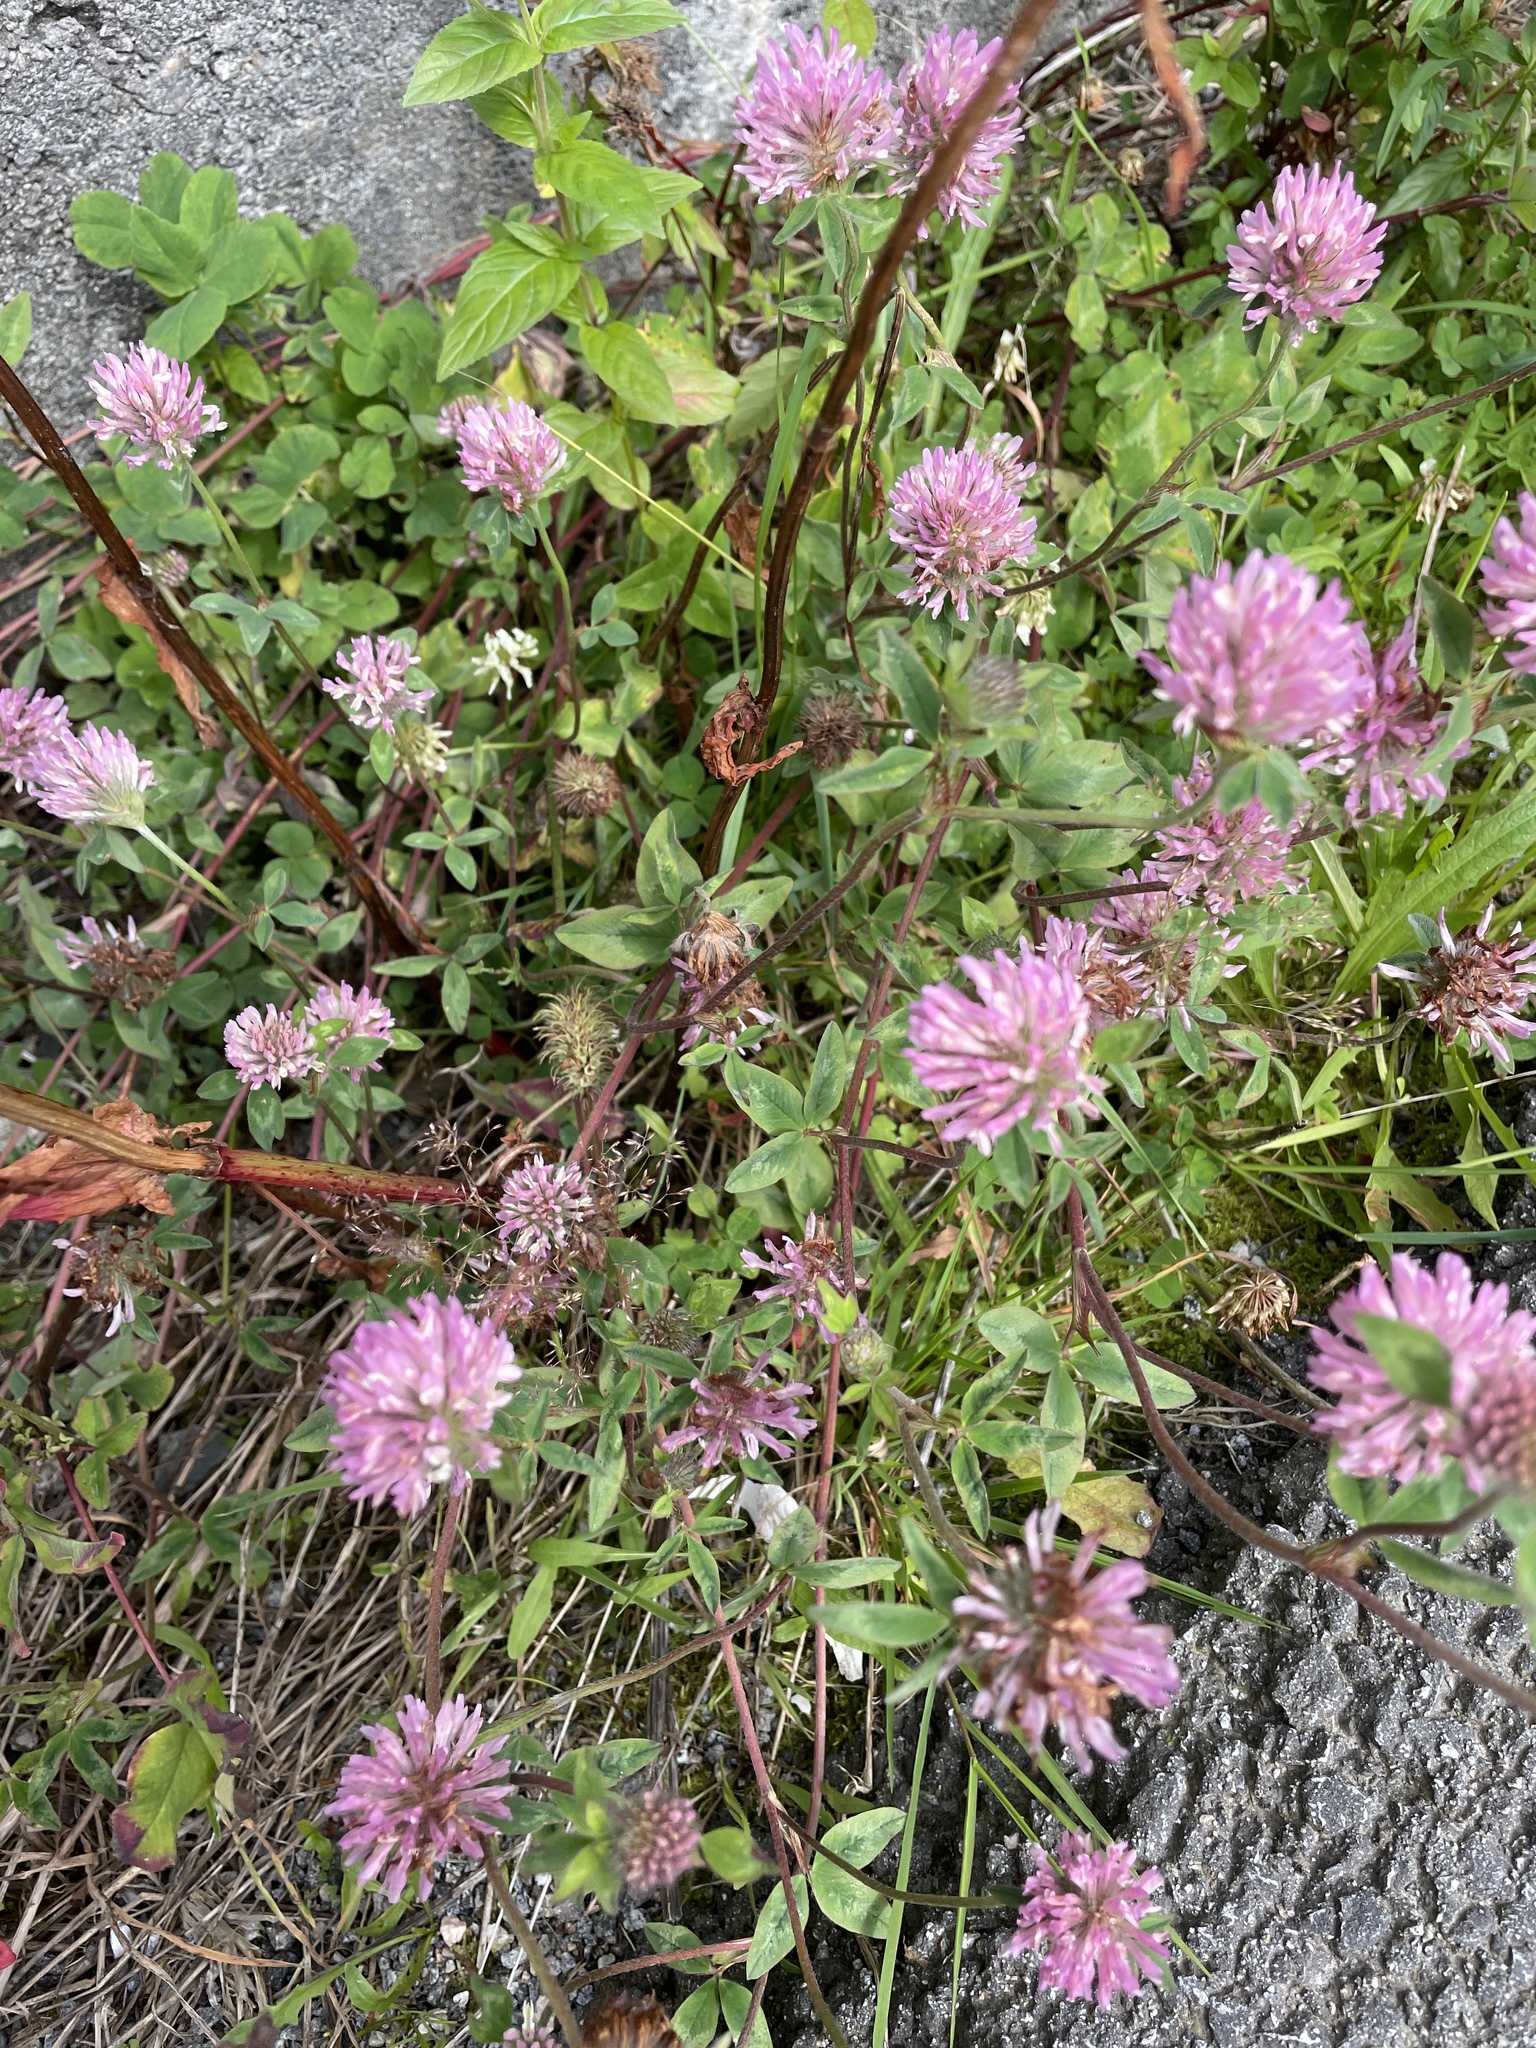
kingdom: Plantae
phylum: Tracheophyta
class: Magnoliopsida
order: Fabales
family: Fabaceae
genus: Trifolium
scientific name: Trifolium pratense
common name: Red clover
